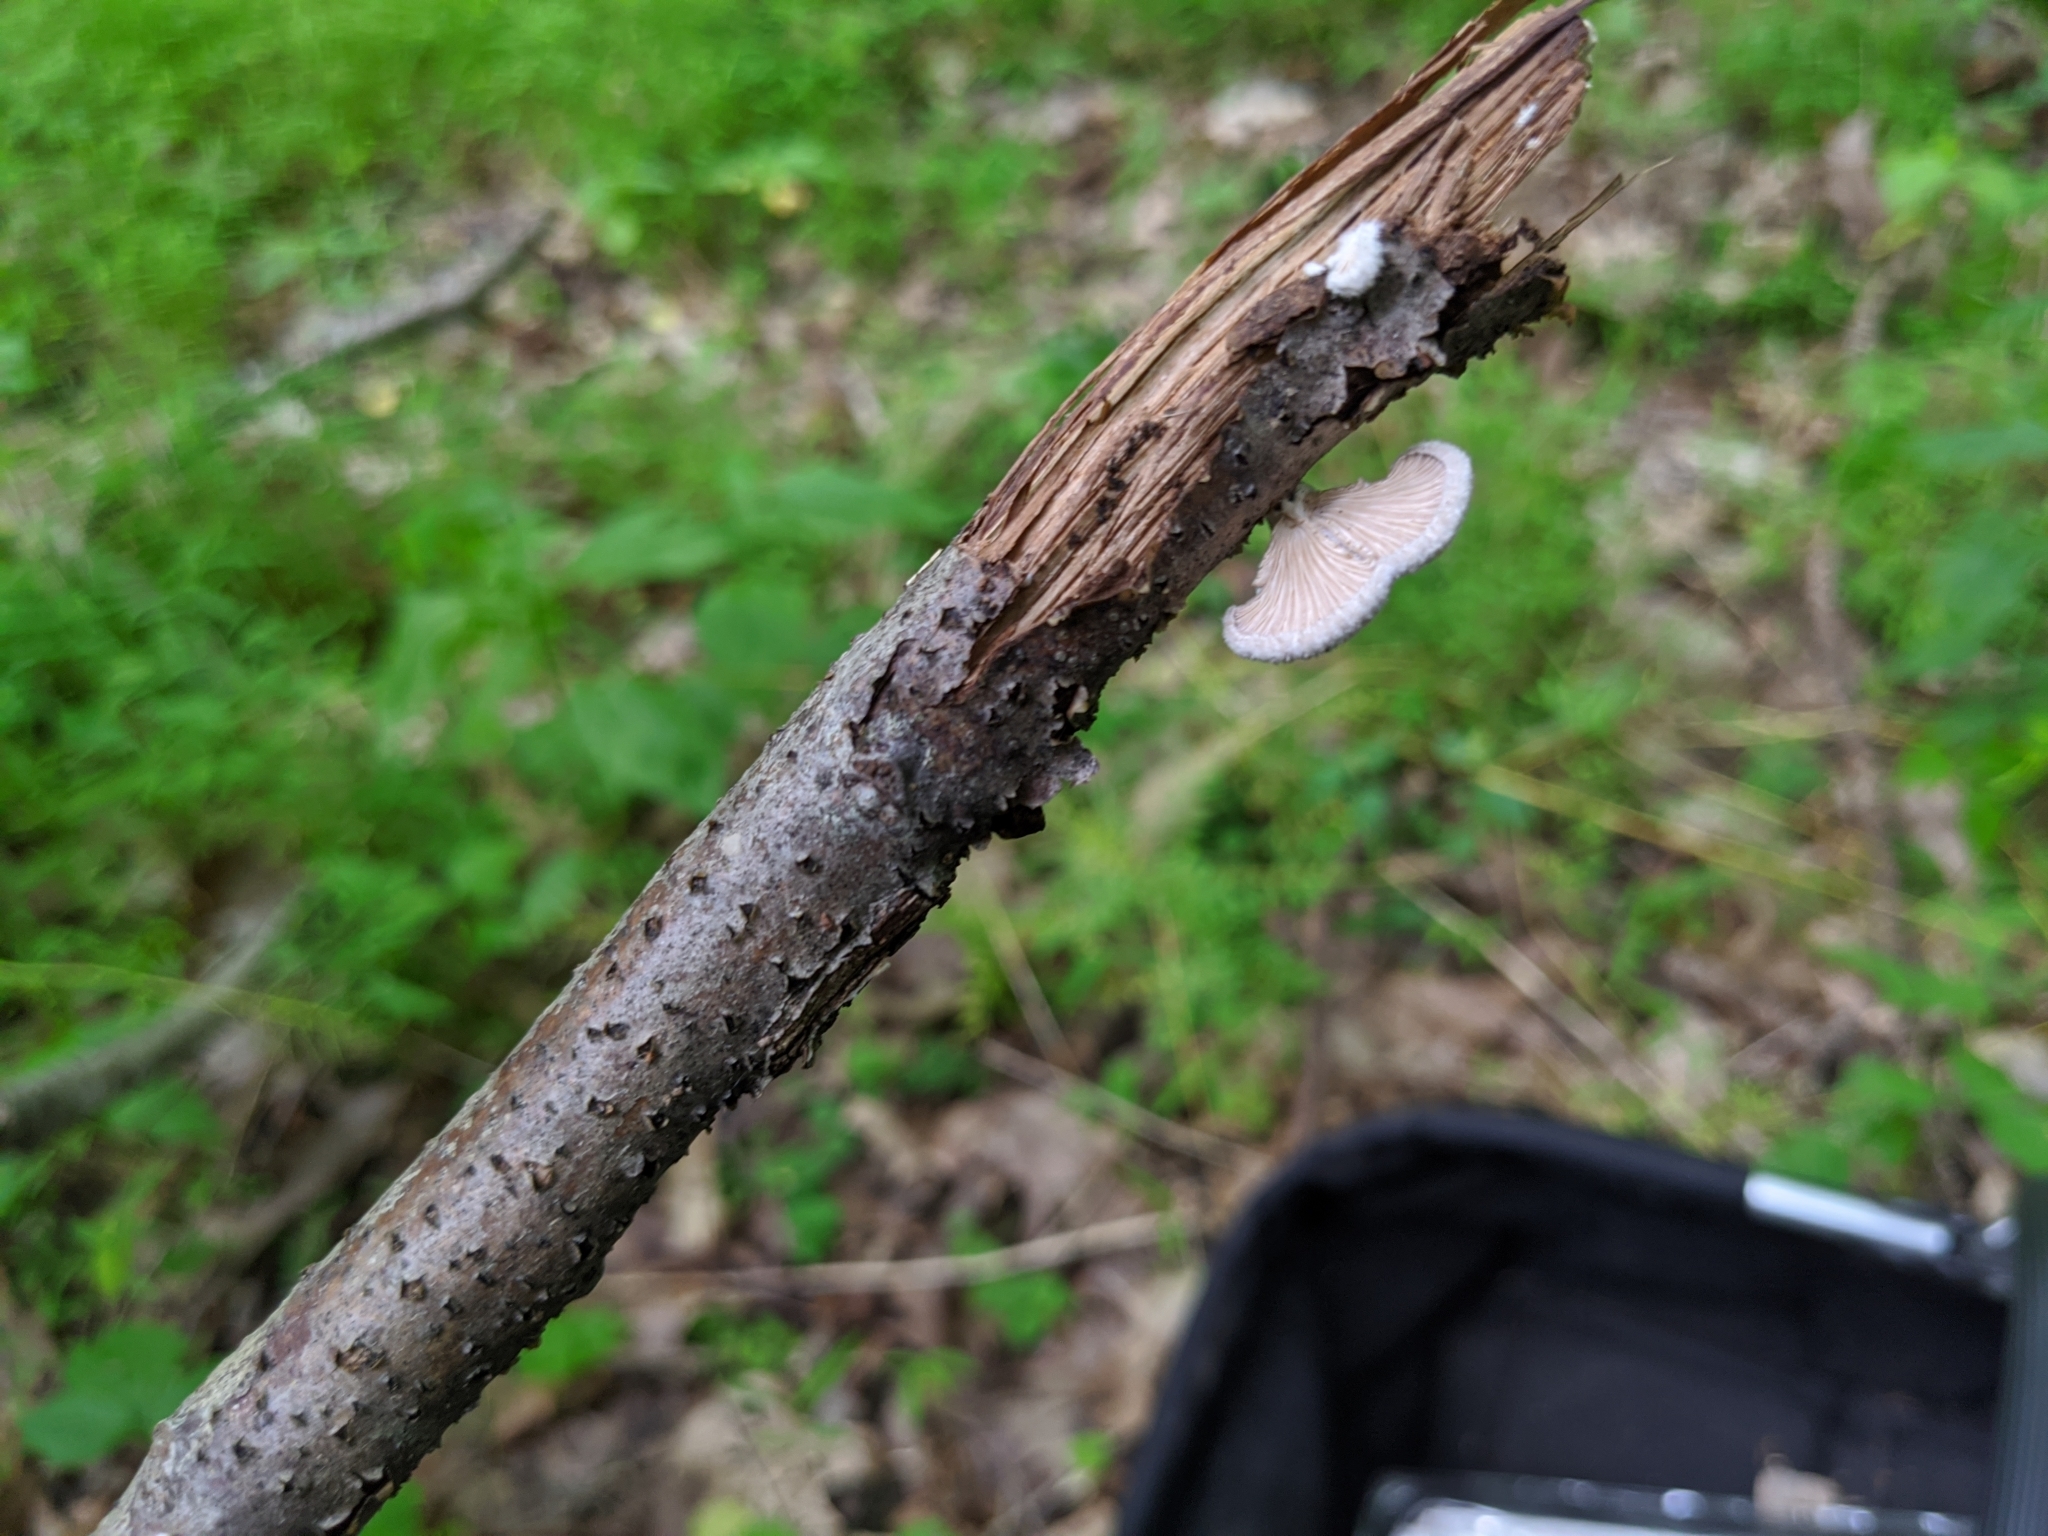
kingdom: Fungi
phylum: Basidiomycota
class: Agaricomycetes
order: Agaricales
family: Schizophyllaceae
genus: Schizophyllum
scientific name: Schizophyllum commune
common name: Common porecrust
